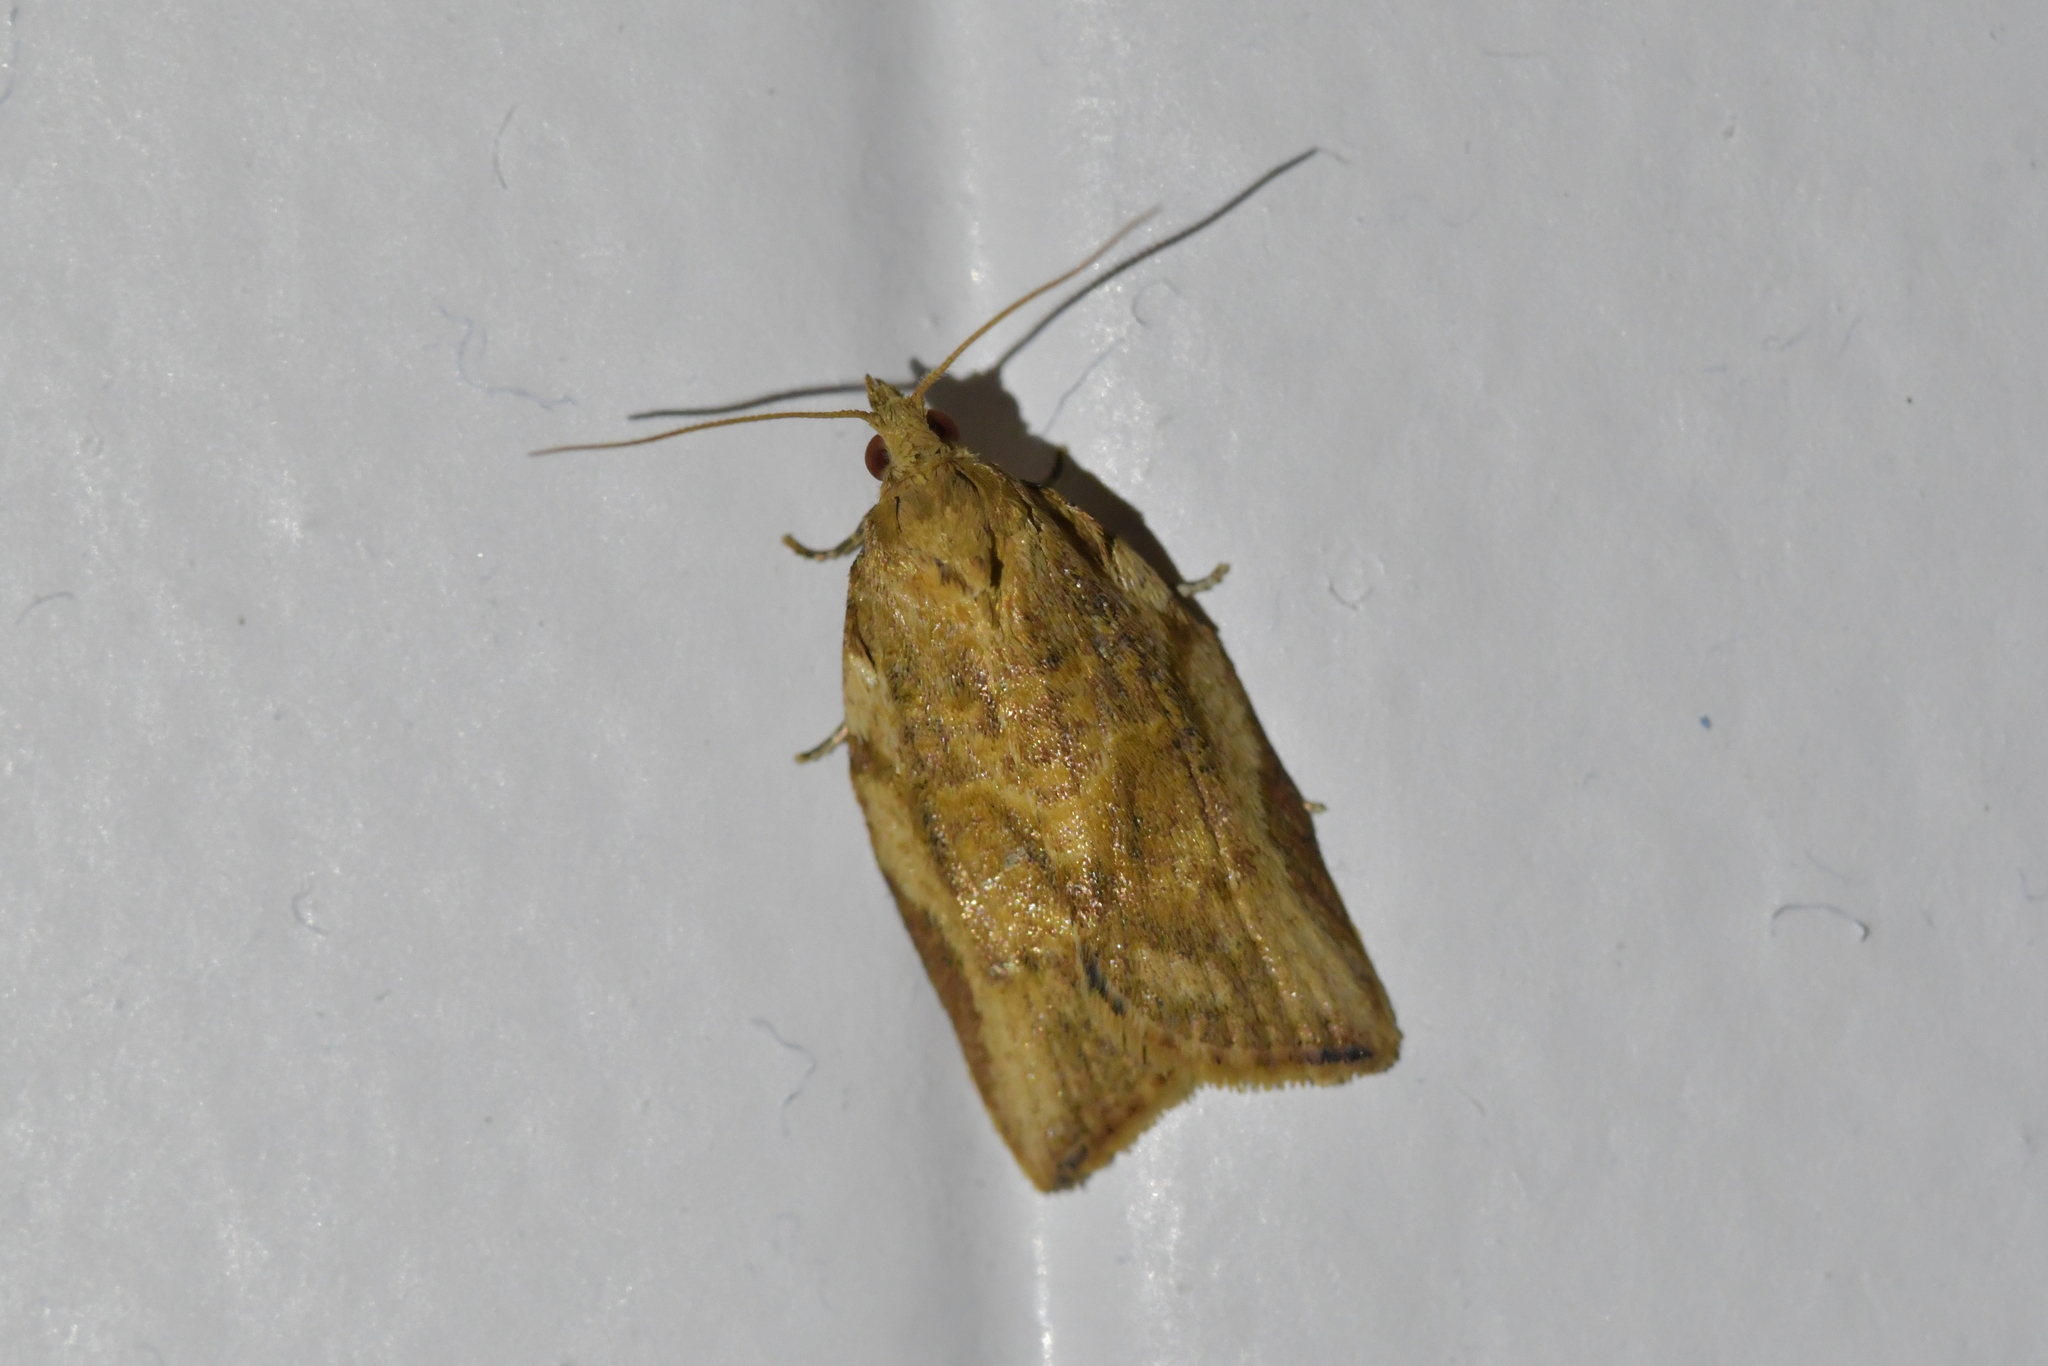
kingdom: Animalia
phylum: Arthropoda
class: Insecta
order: Lepidoptera
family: Tortricidae
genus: Epiphyas
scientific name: Epiphyas postvittana
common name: Light brown apple moth
